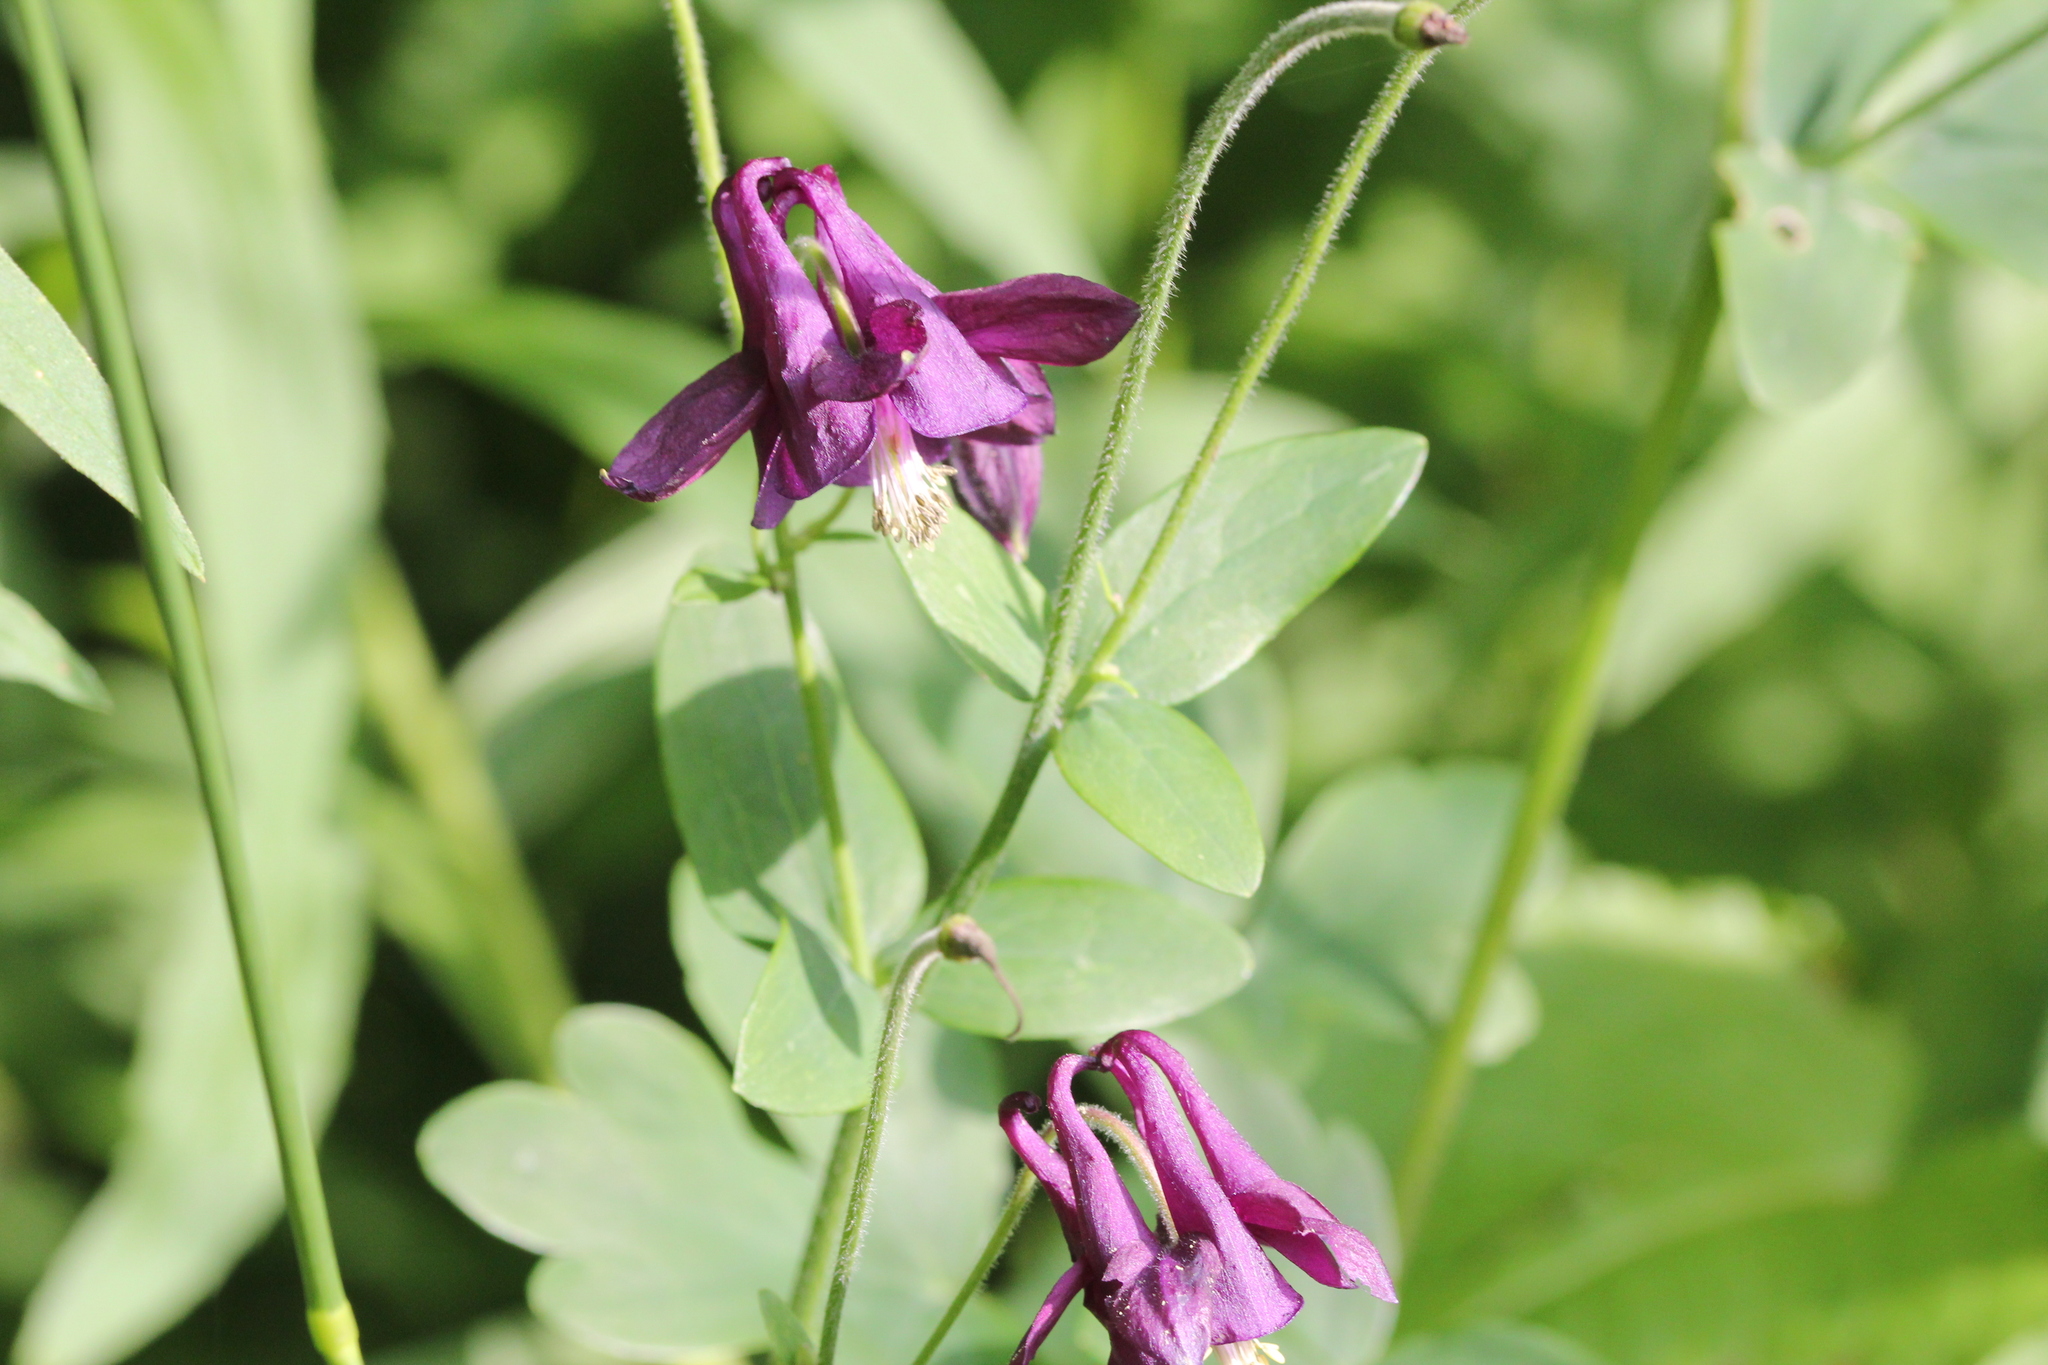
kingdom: Plantae
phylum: Tracheophyta
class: Magnoliopsida
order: Ranunculales
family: Ranunculaceae
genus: Aquilegia
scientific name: Aquilegia vulgaris
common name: Columbine
